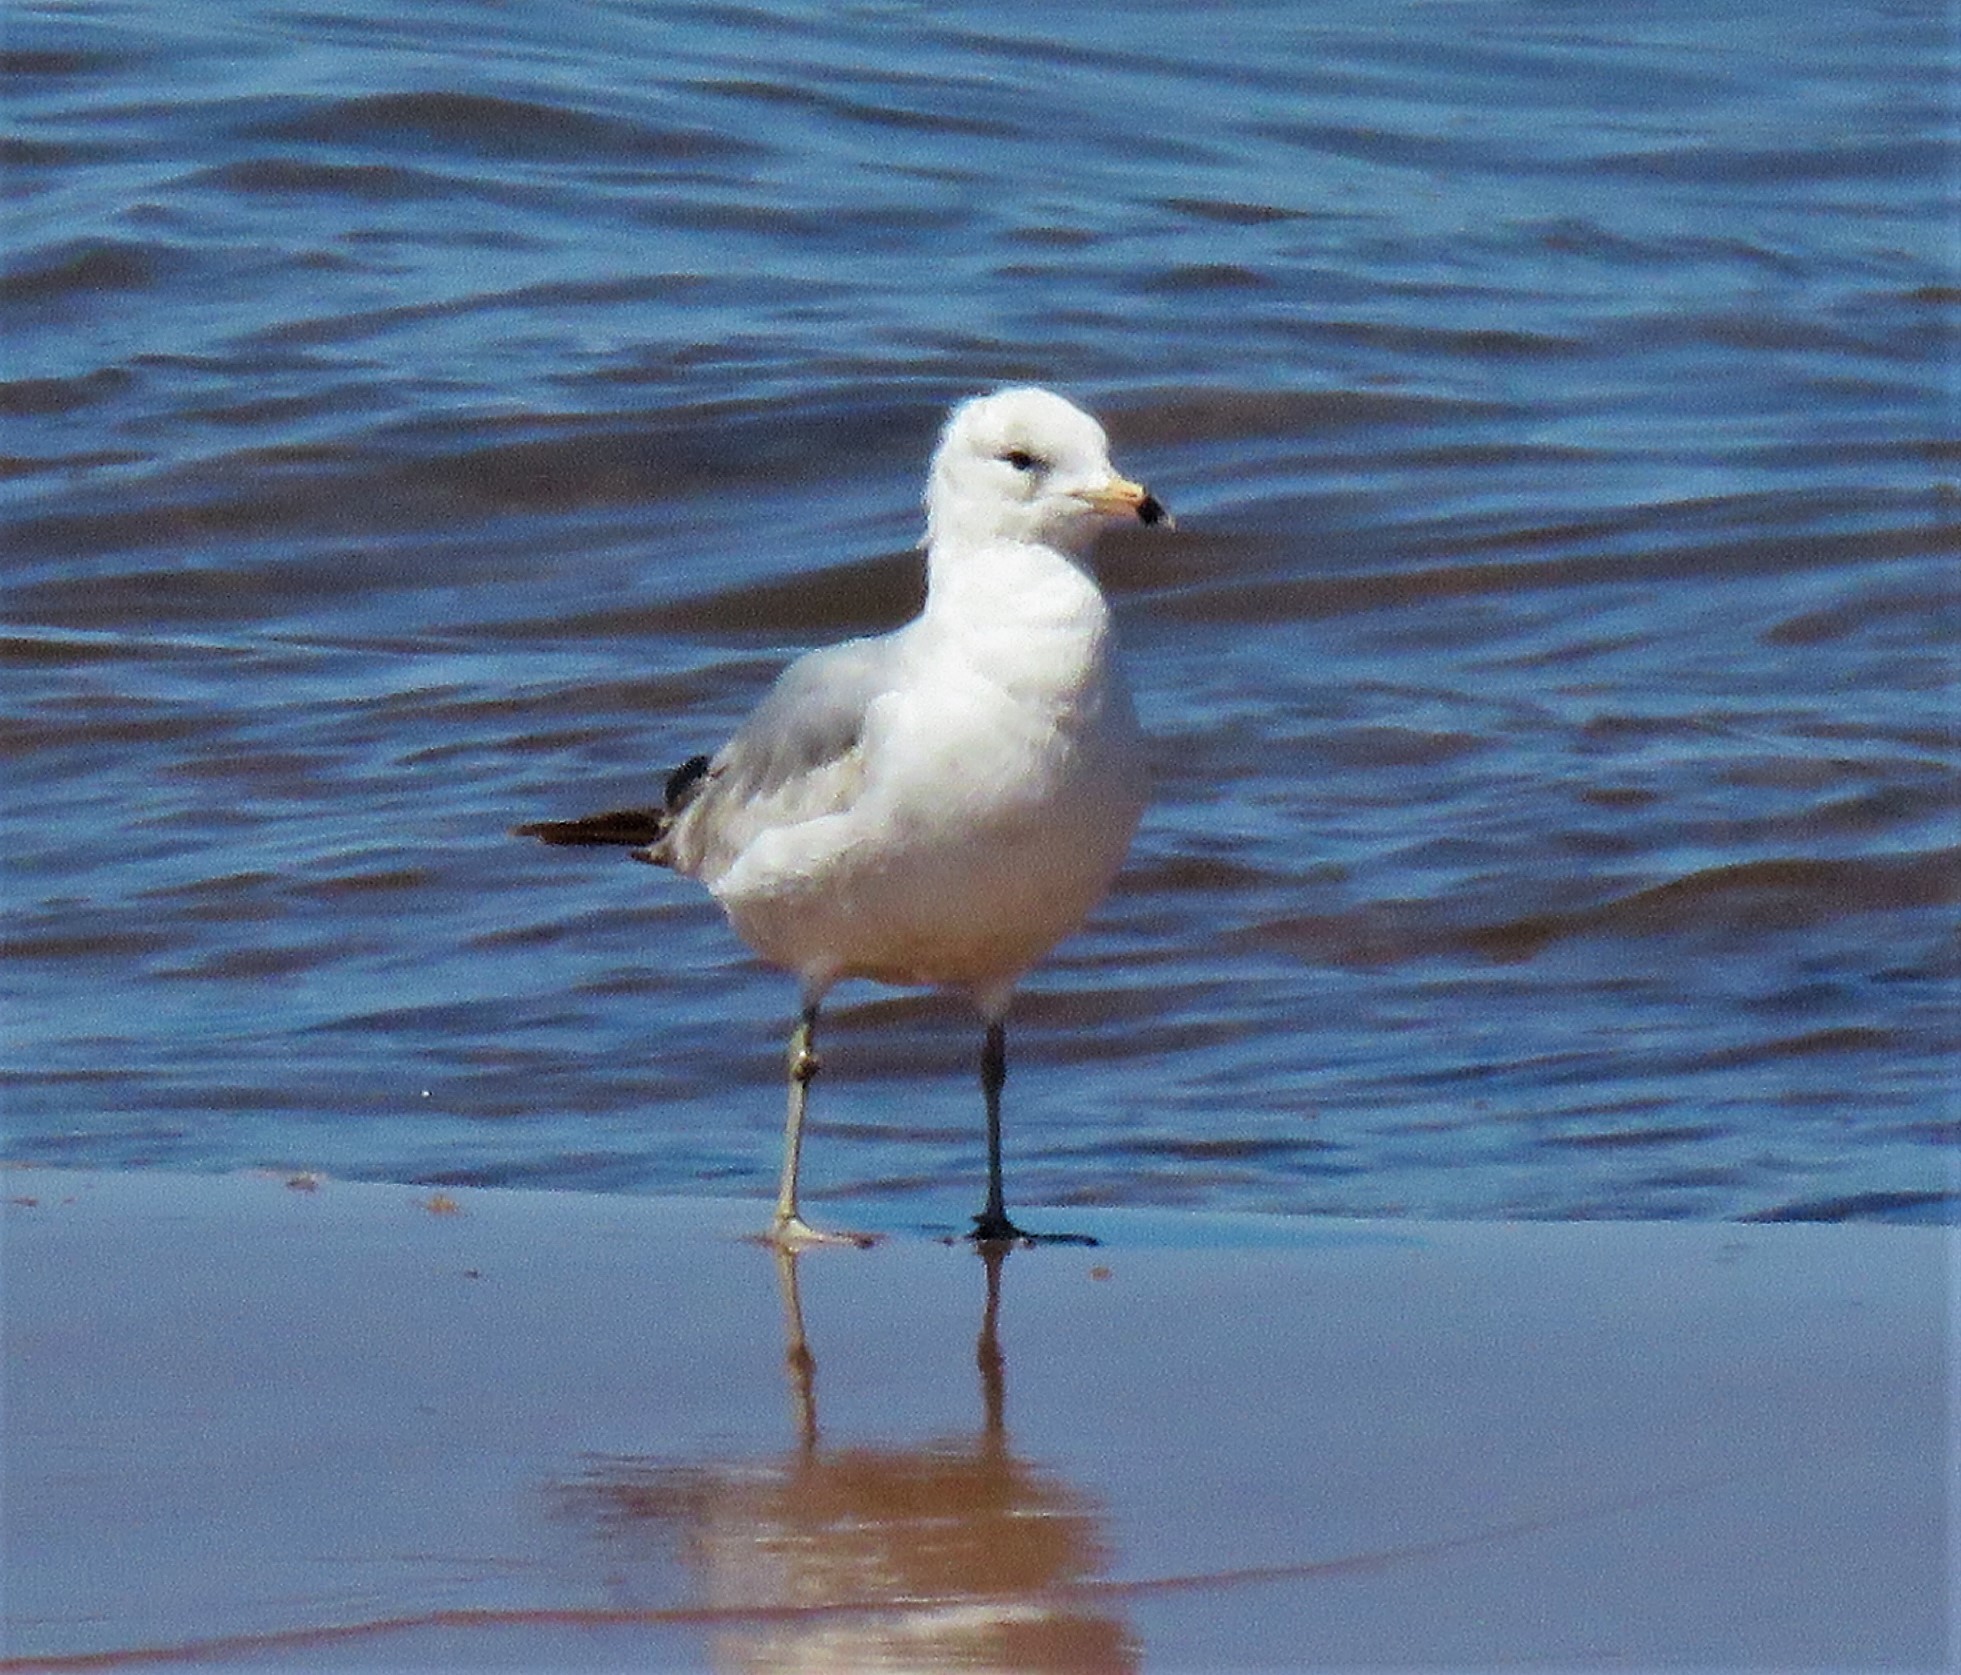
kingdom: Animalia
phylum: Chordata
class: Aves
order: Charadriiformes
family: Laridae
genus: Larus
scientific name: Larus delawarensis
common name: Ring-billed gull
